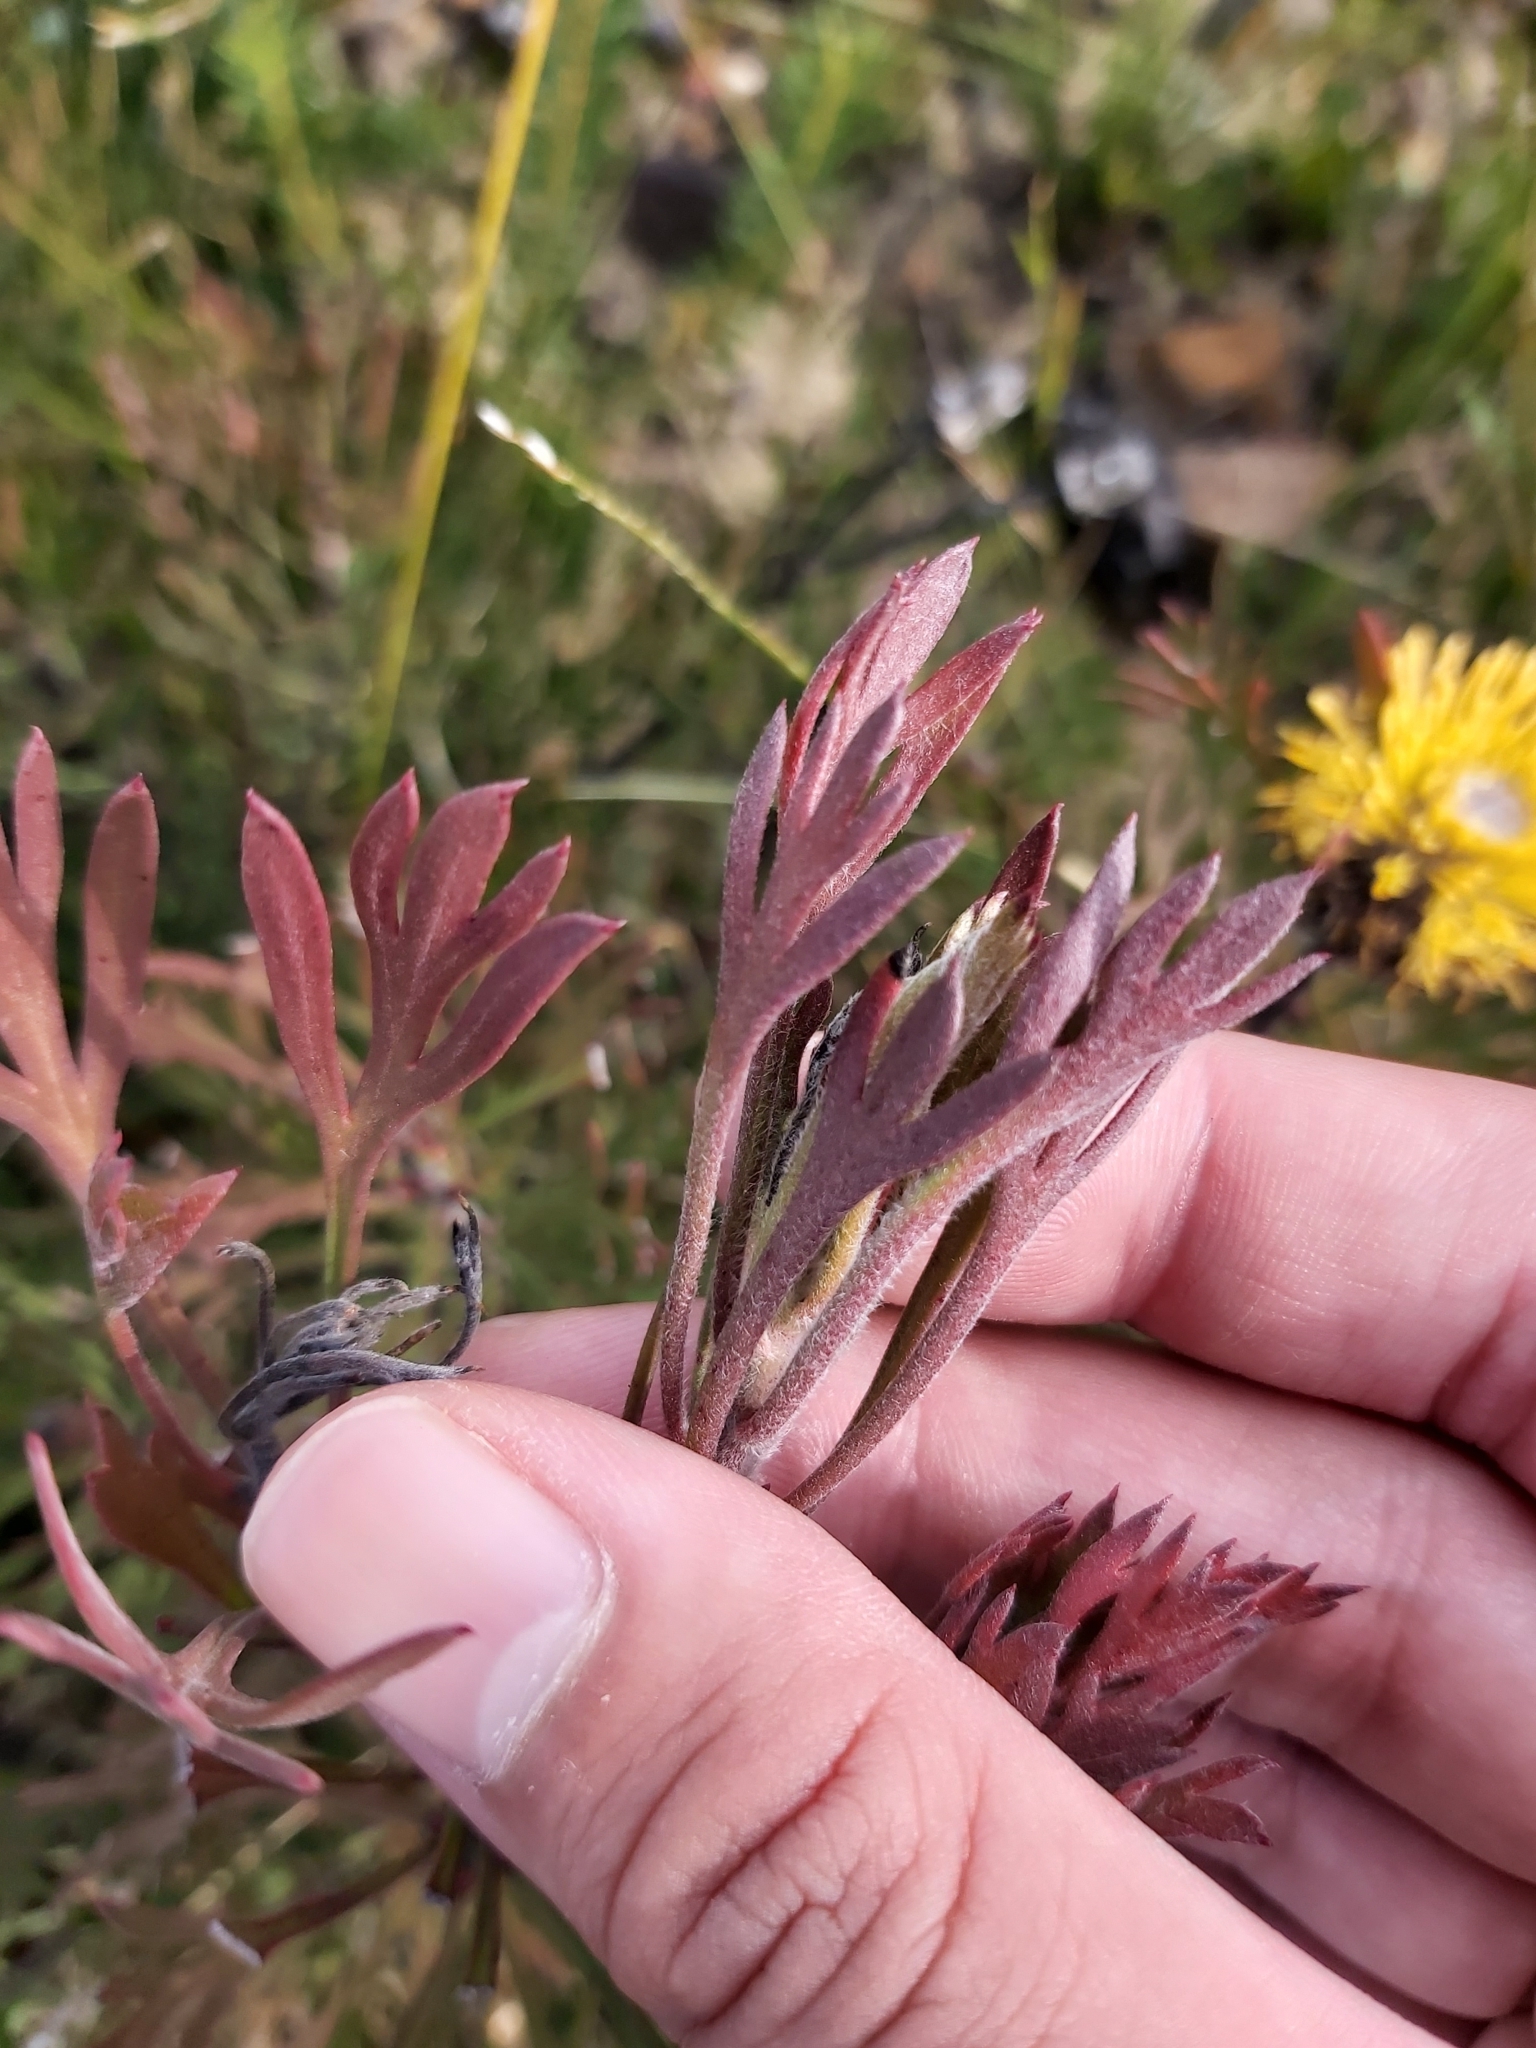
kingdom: Plantae
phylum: Tracheophyta
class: Magnoliopsida
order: Proteales
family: Proteaceae
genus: Isopogon
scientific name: Isopogon anemonifolius
